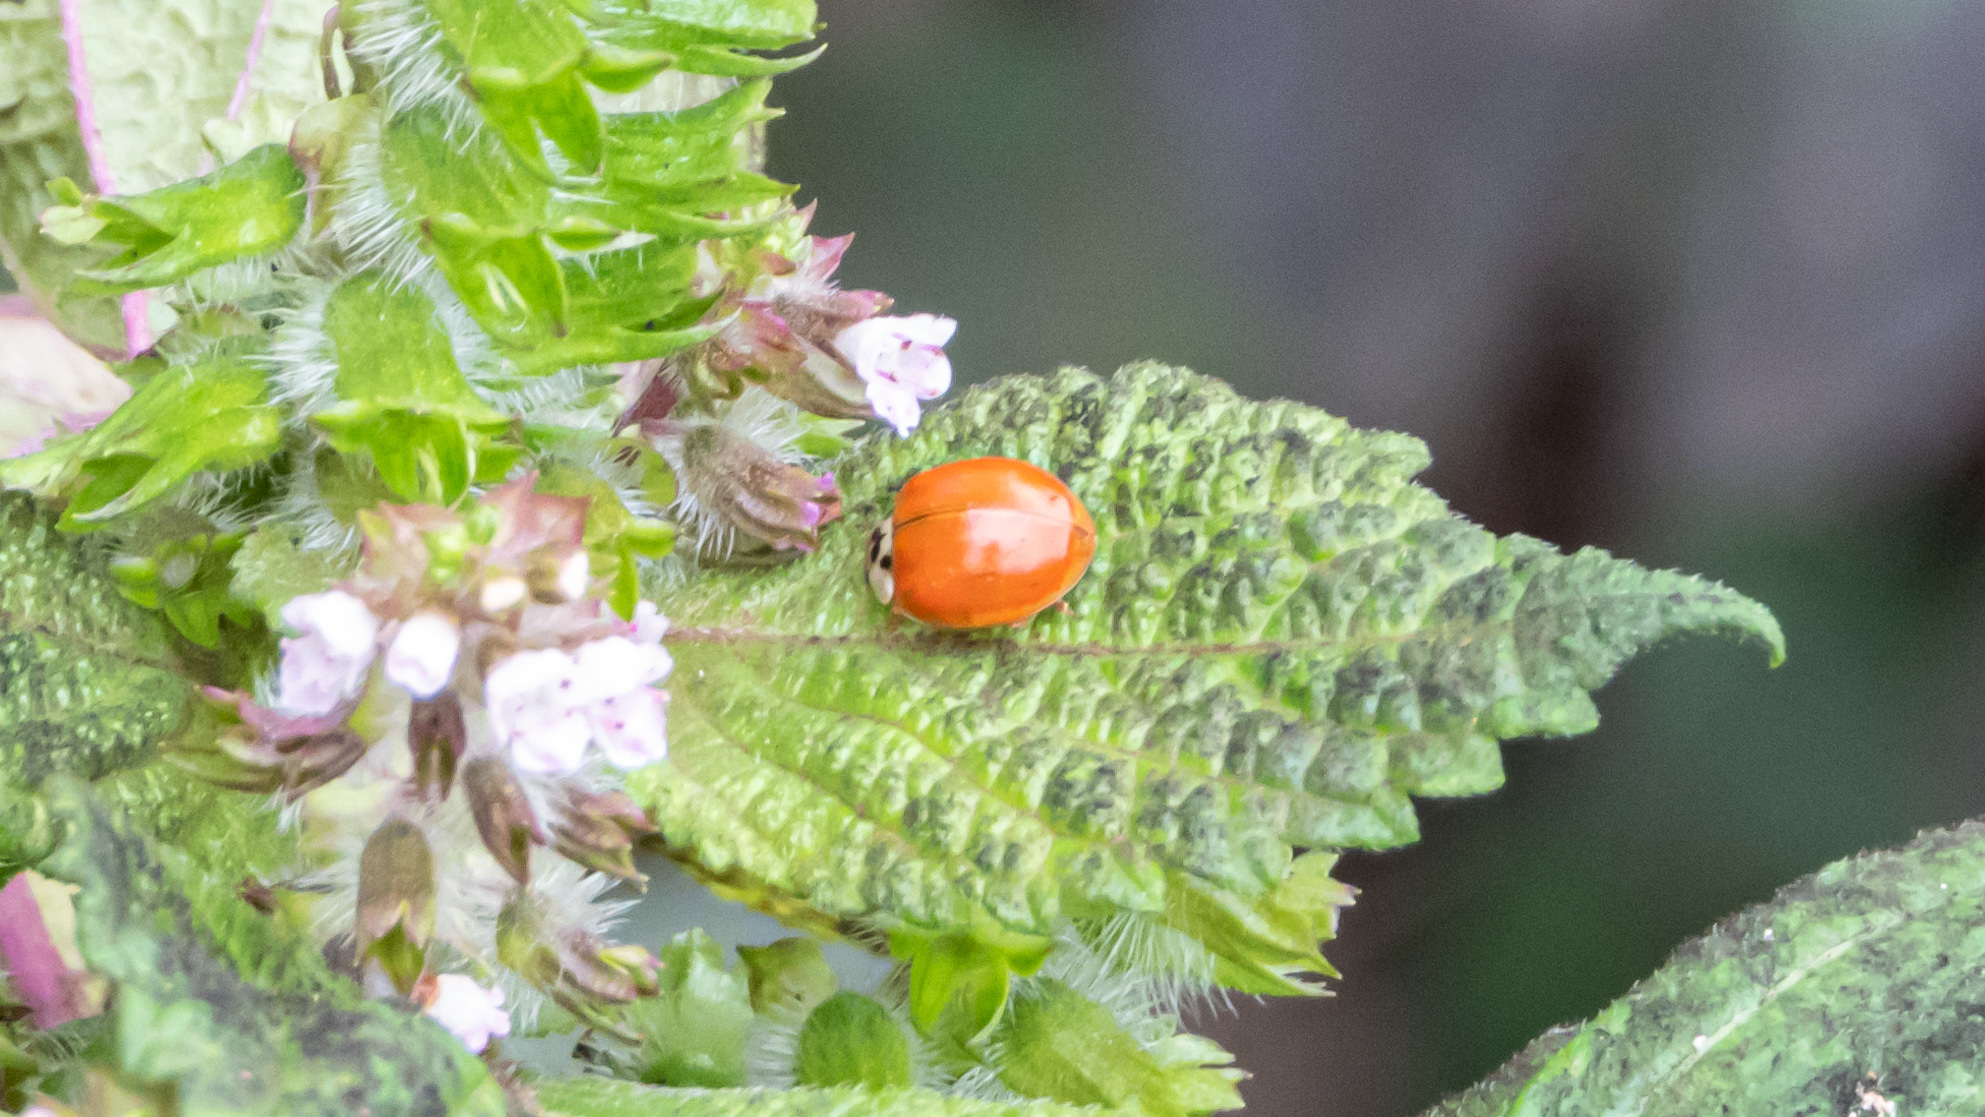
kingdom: Animalia
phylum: Arthropoda
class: Insecta
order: Coleoptera
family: Coccinellidae
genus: Harmonia
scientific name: Harmonia axyridis
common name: Harlequin ladybird
